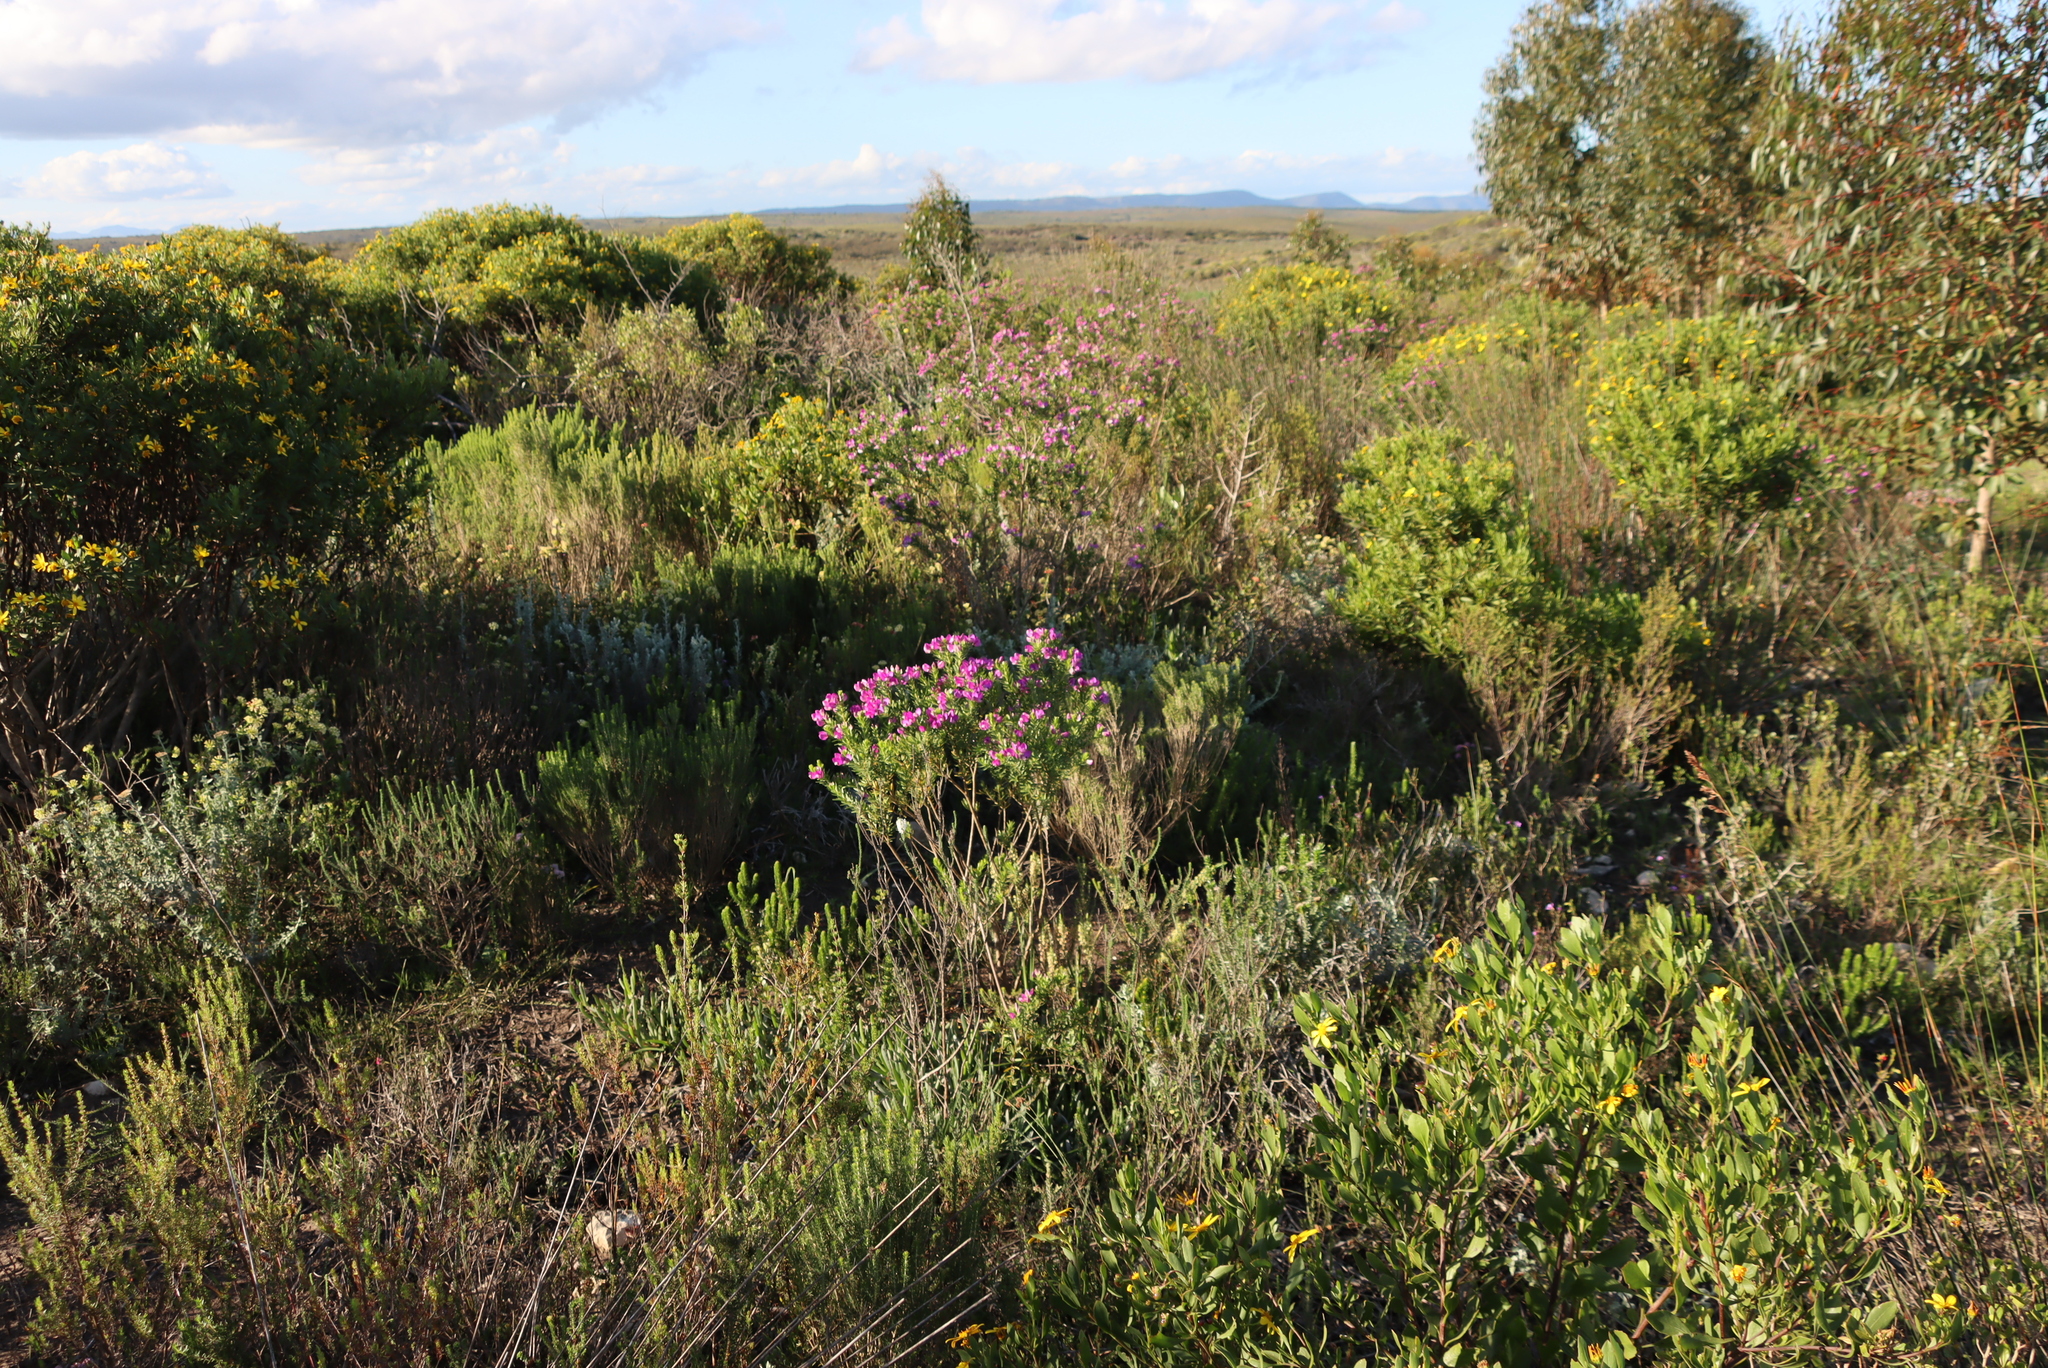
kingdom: Plantae
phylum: Tracheophyta
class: Magnoliopsida
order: Fabales
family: Polygalaceae
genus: Polygala
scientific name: Polygala myrtifolia
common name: Myrtle-leaf milkwort
